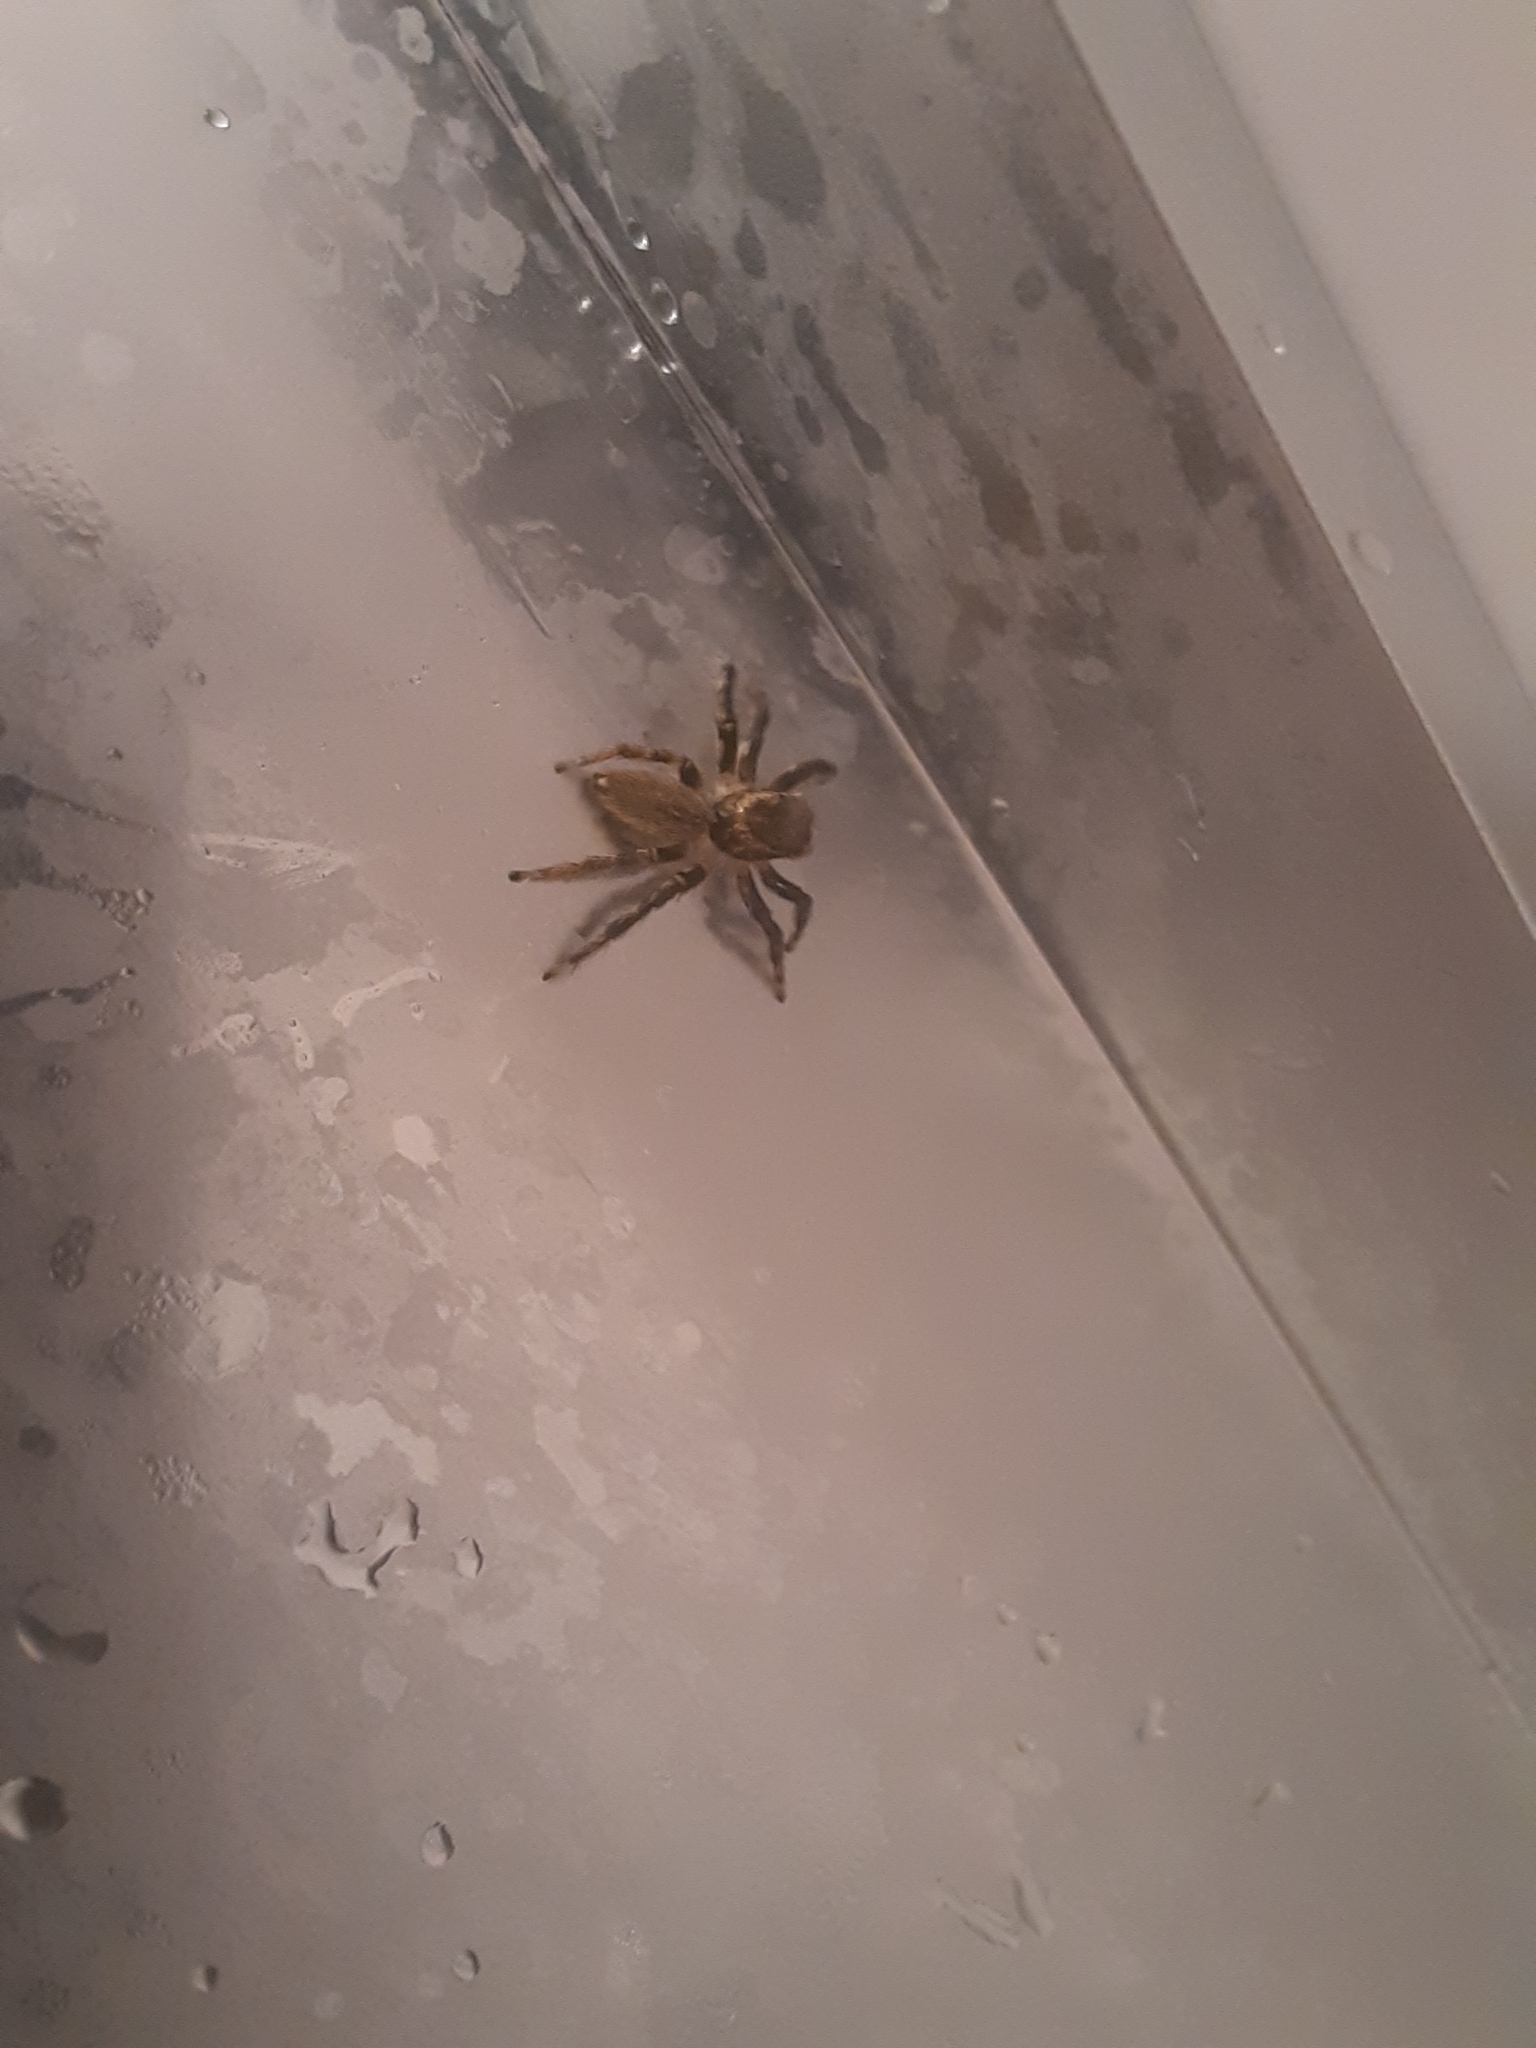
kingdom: Animalia
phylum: Arthropoda
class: Arachnida
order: Araneae
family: Salticidae
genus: Maratus
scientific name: Maratus griseus
